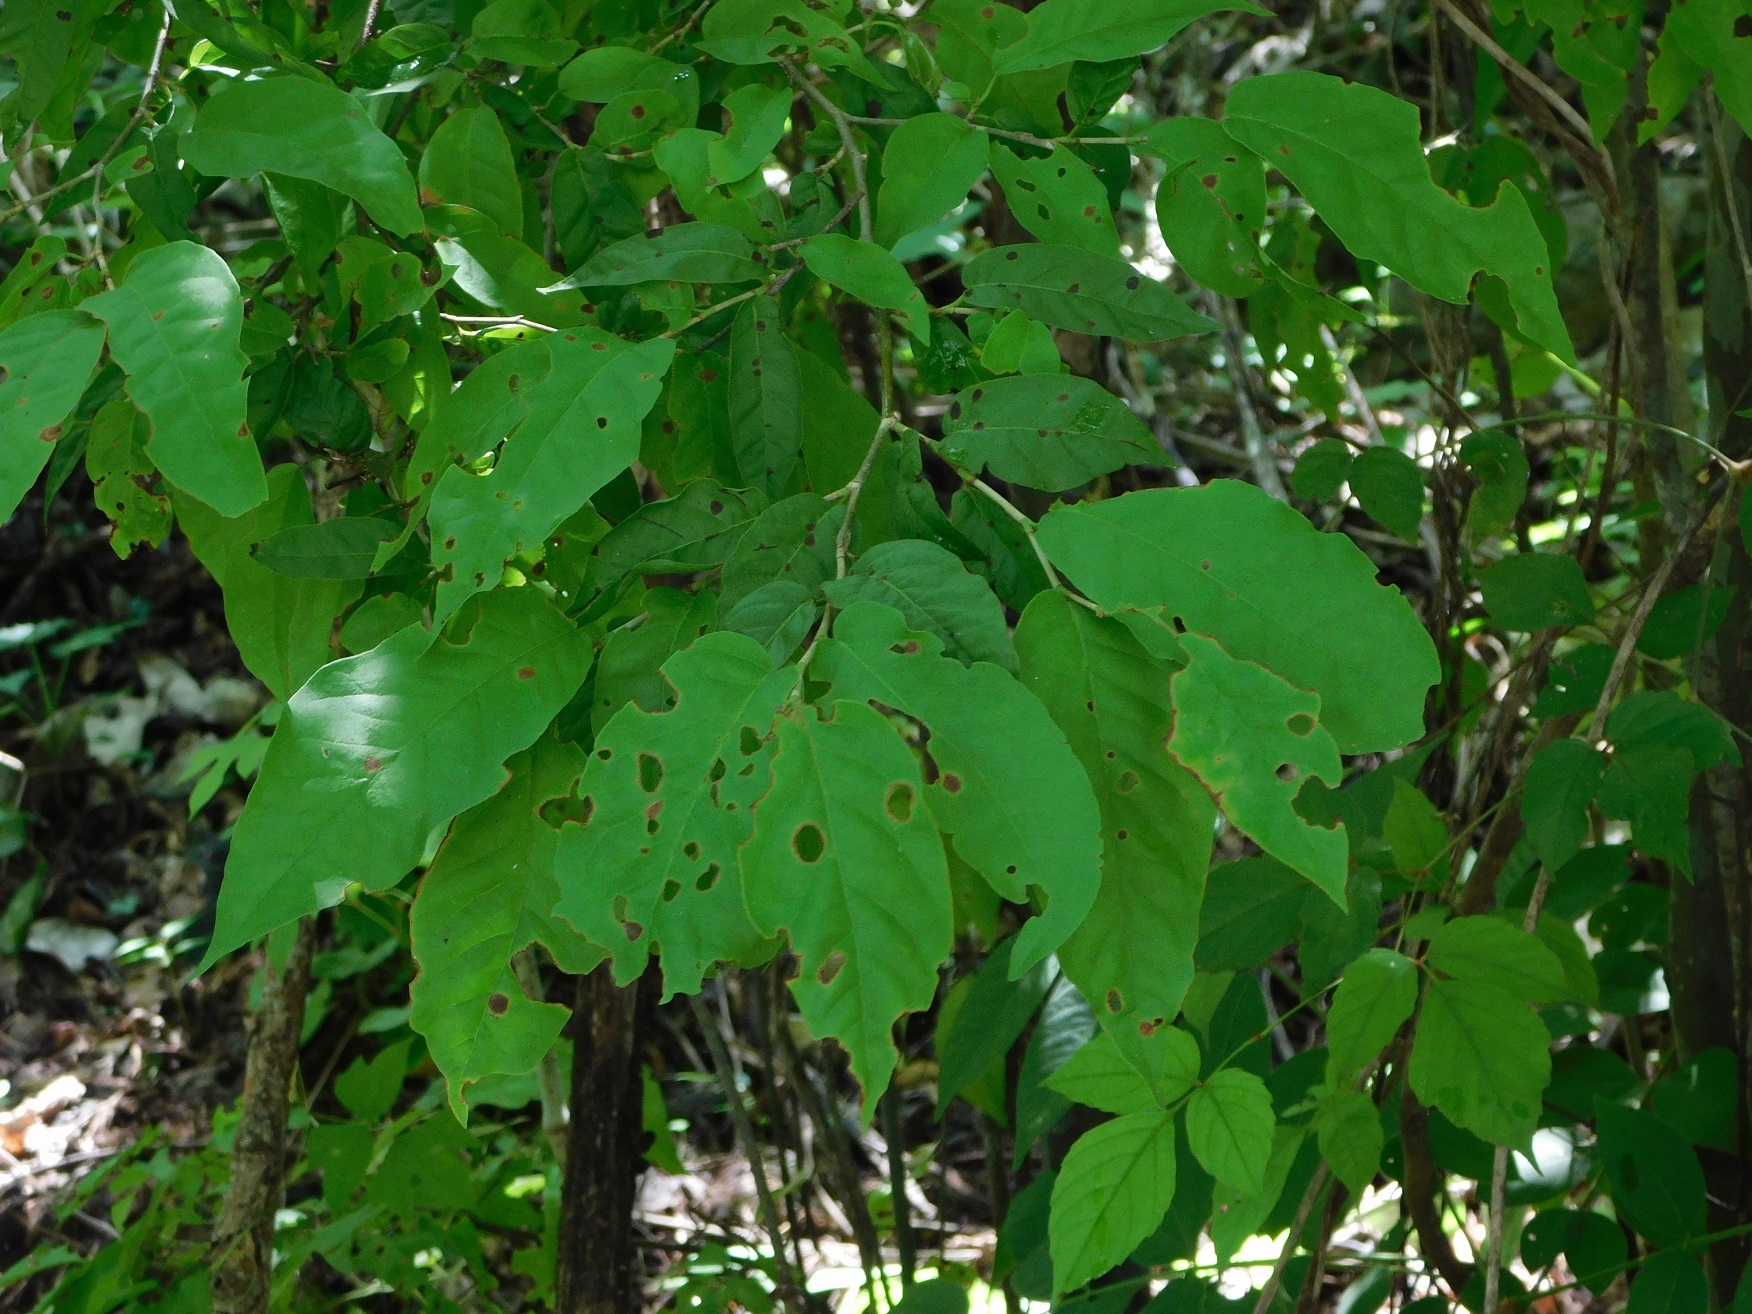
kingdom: Plantae
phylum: Tracheophyta
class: Magnoliopsida
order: Caryophyllales
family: Polygonaceae
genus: Coccoloba
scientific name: Coccoloba tunii
